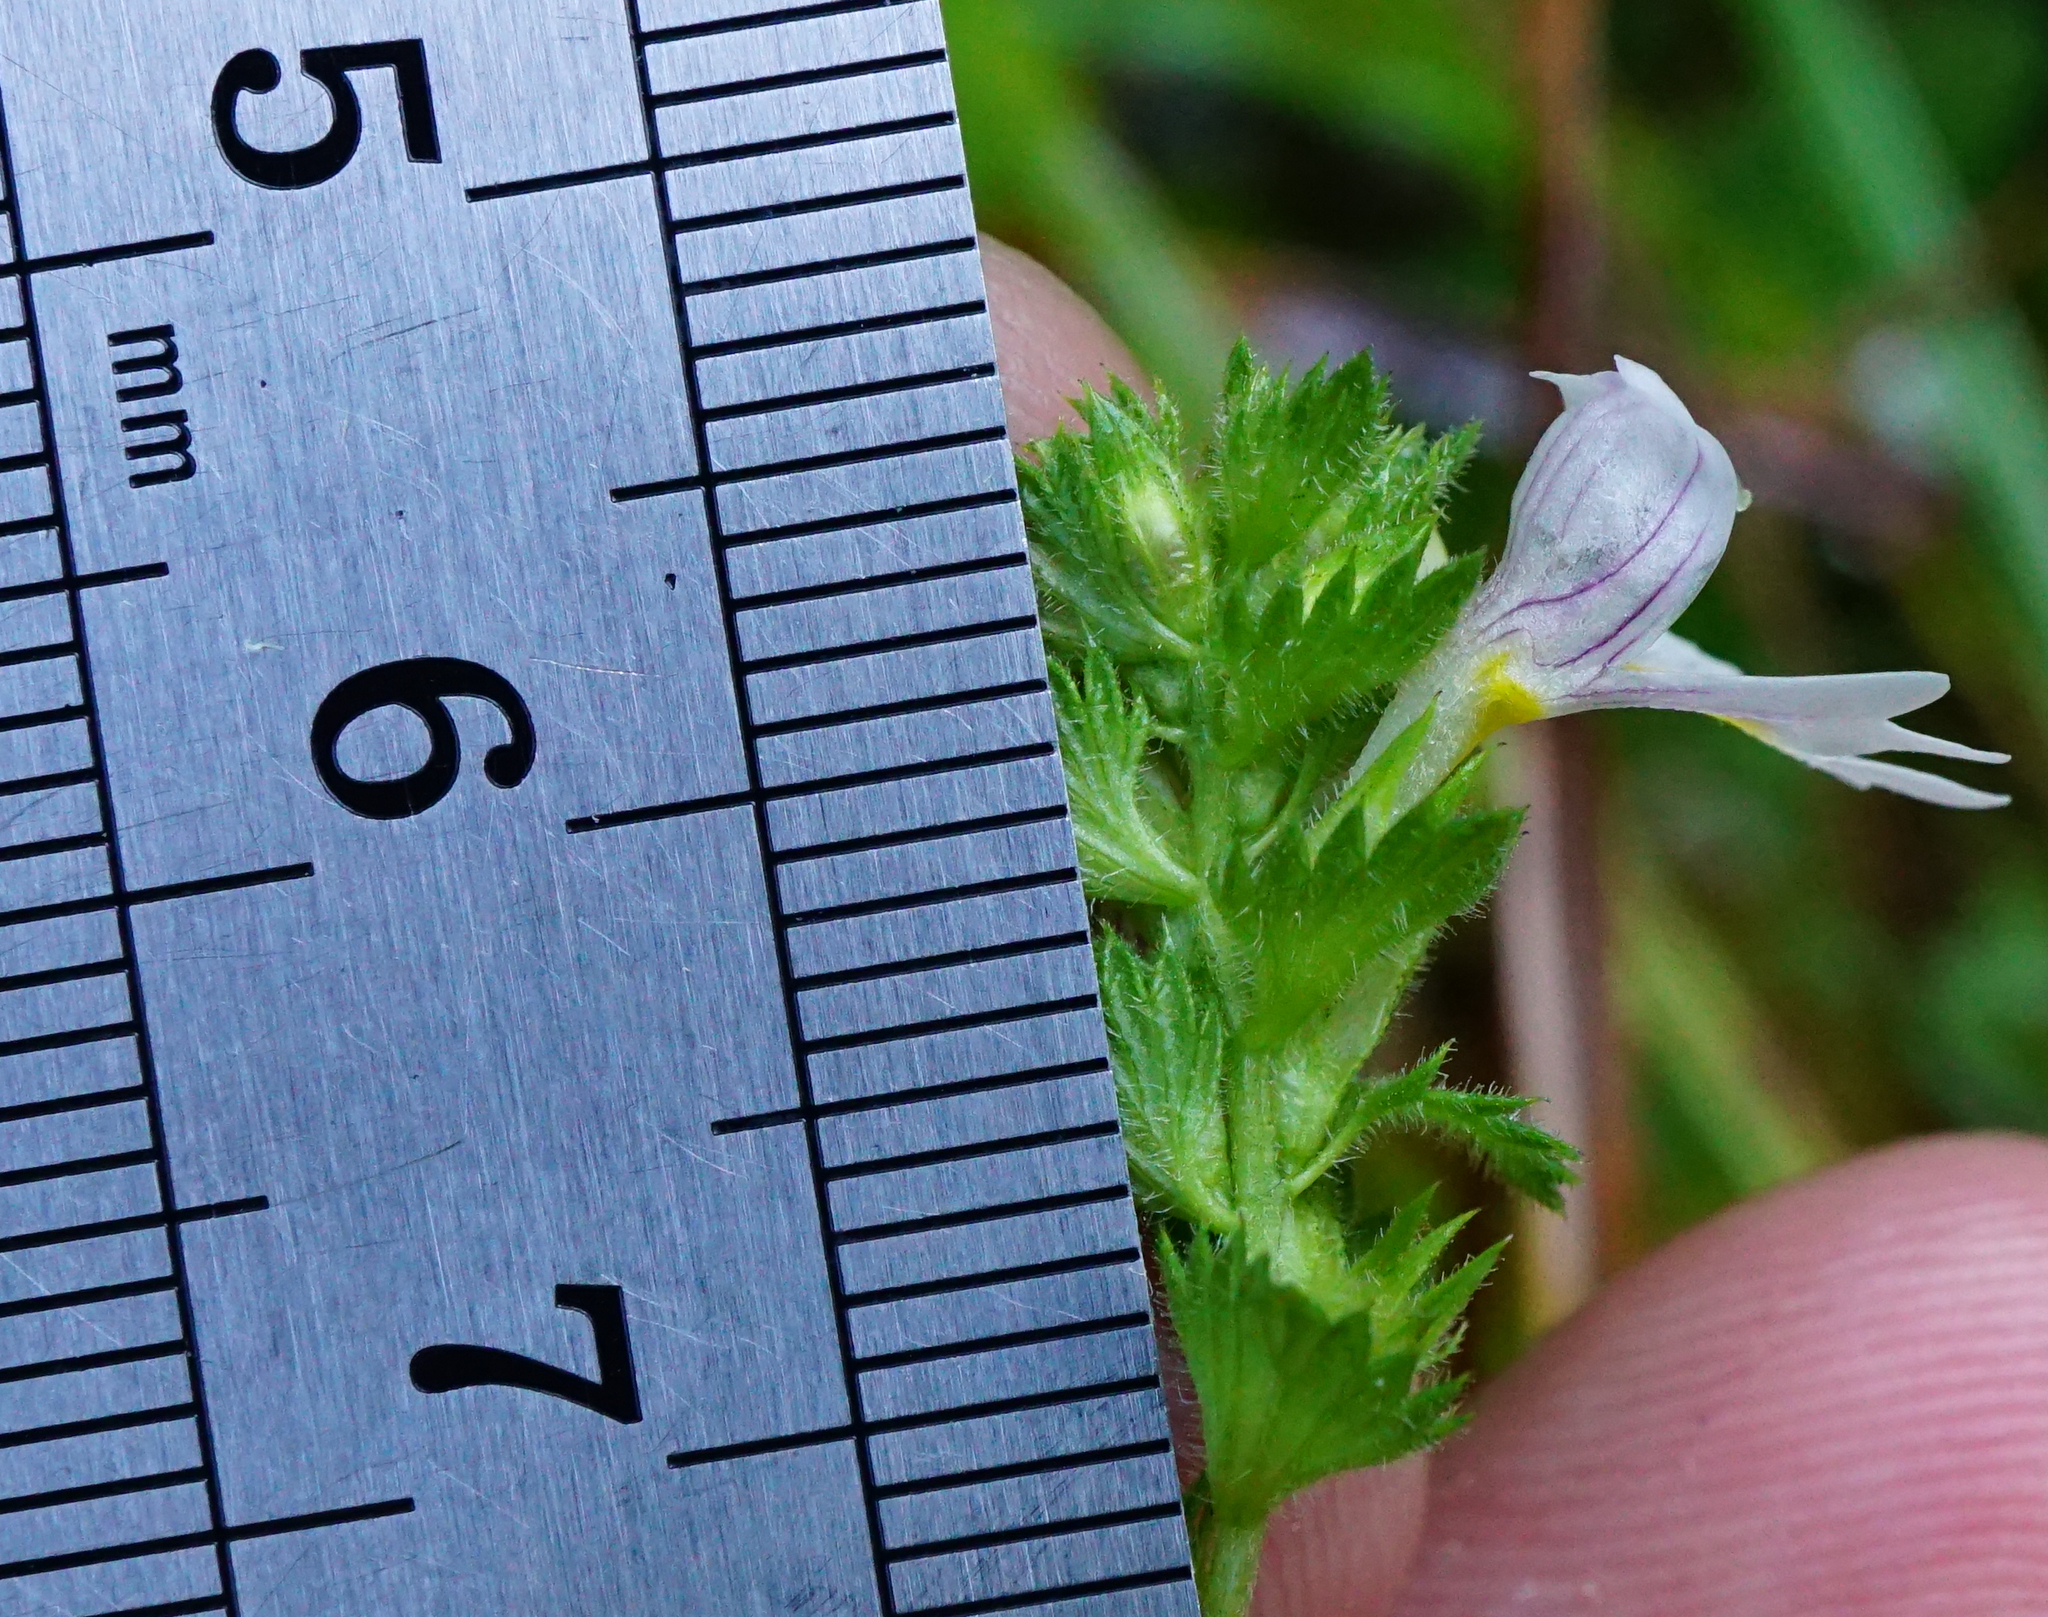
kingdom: Plantae
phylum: Tracheophyta
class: Magnoliopsida
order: Lamiales
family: Orobanchaceae
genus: Euphrasia
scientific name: Euphrasia officinalis
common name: Eyebright
